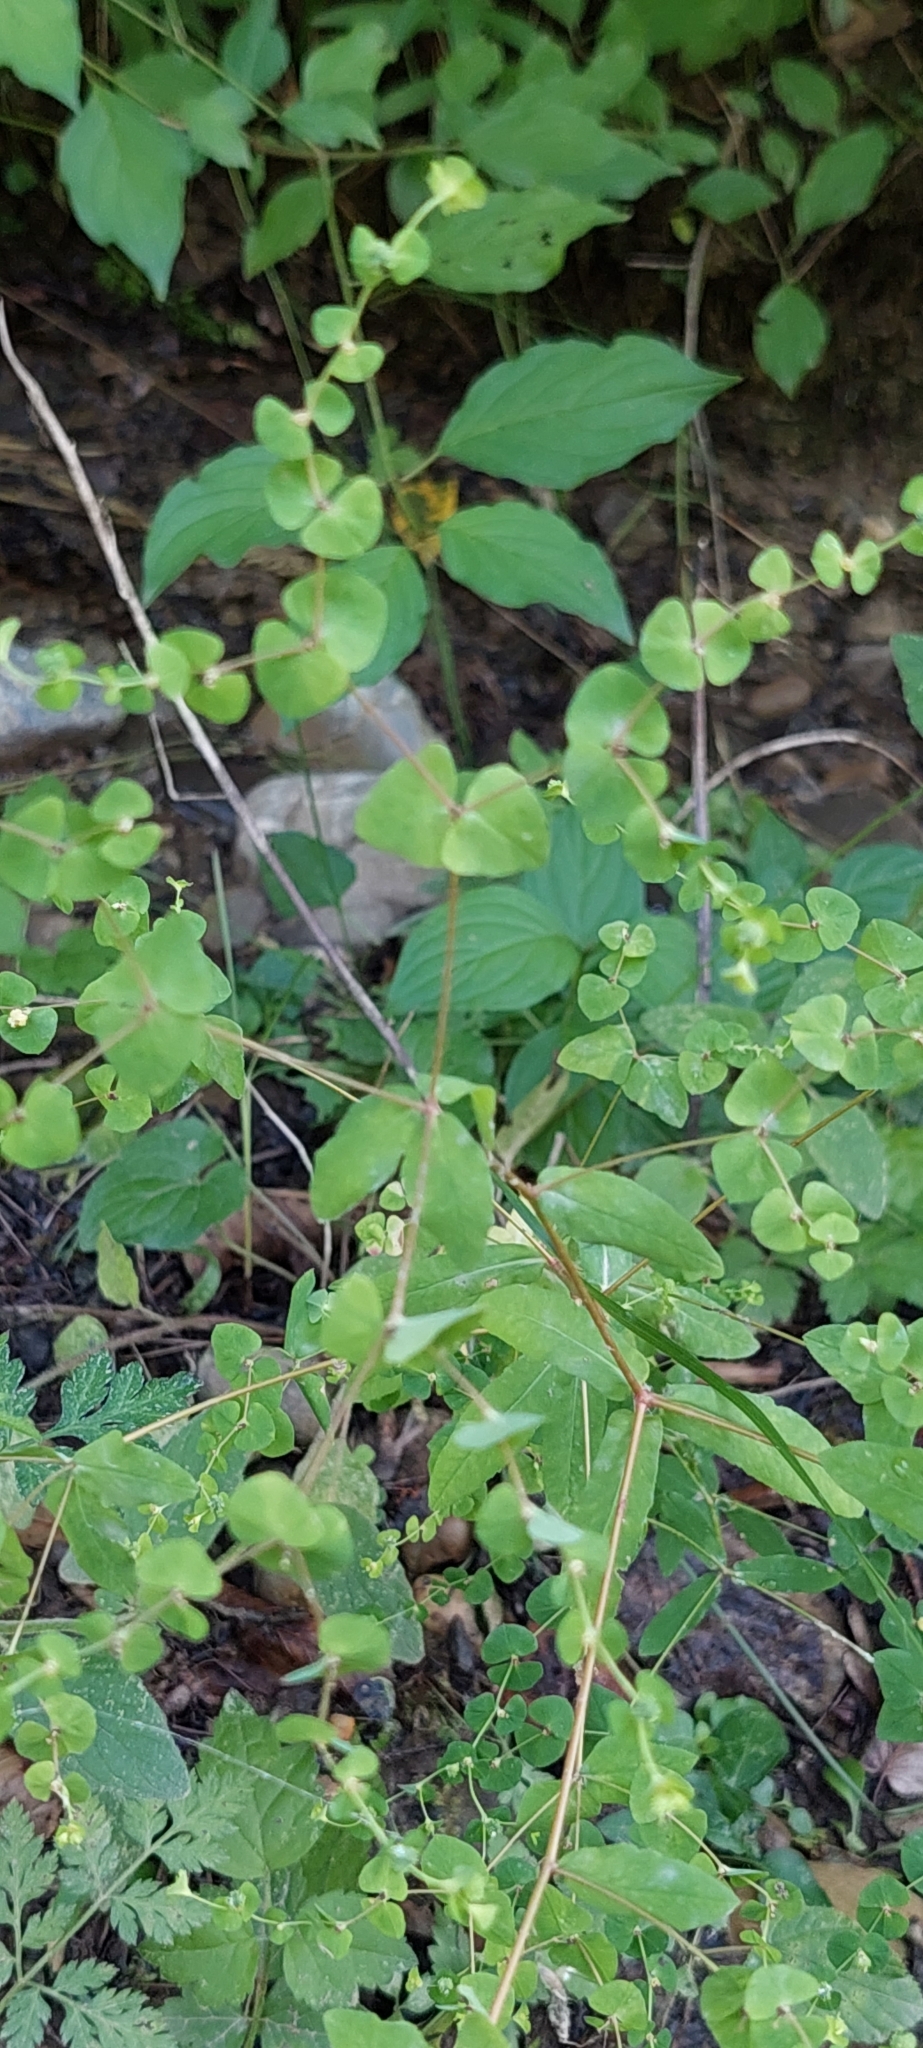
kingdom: Plantae
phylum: Tracheophyta
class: Magnoliopsida
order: Malpighiales
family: Euphorbiaceae
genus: Euphorbia
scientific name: Euphorbia stricta
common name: Upright spurge
